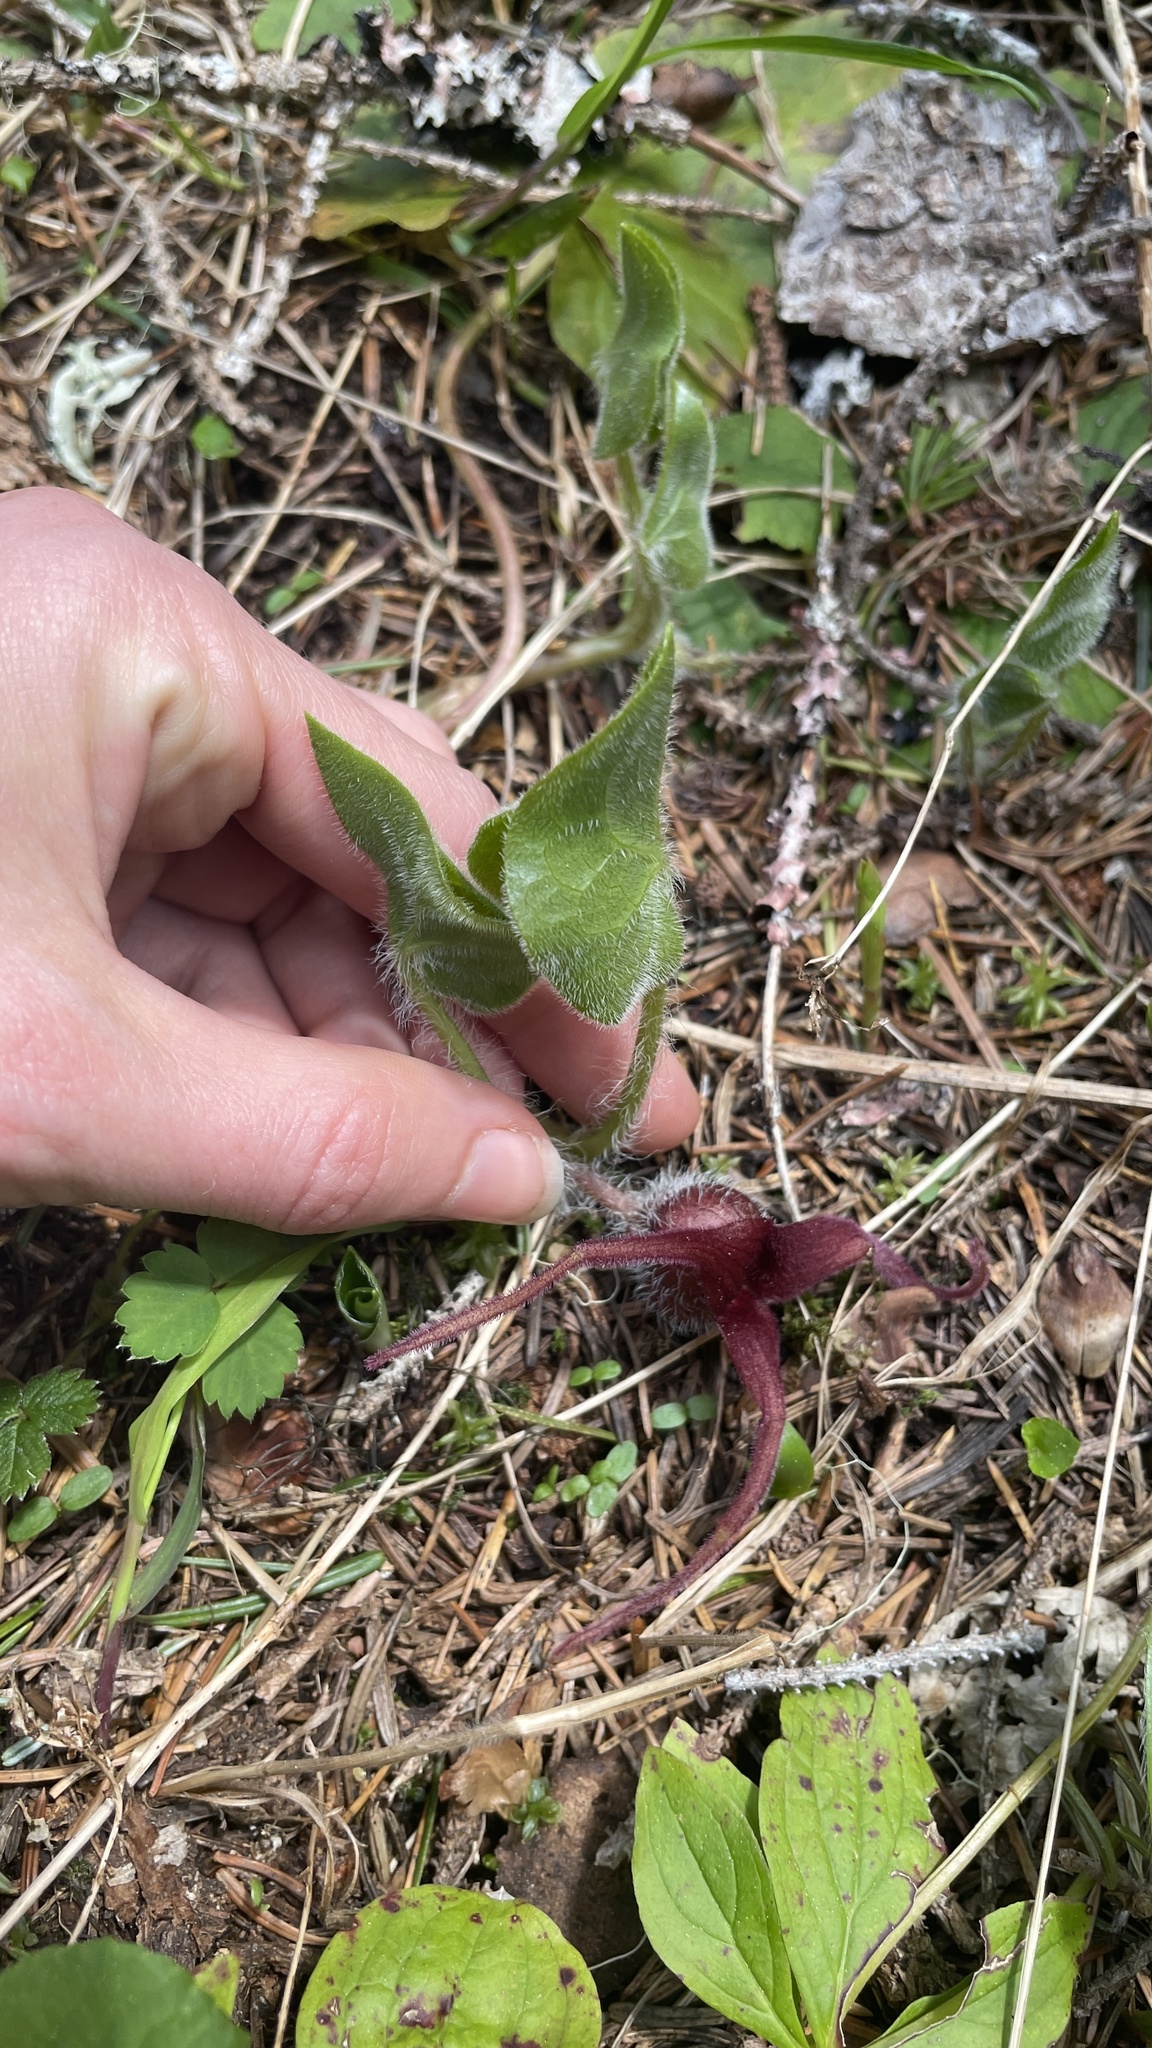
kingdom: Plantae
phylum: Tracheophyta
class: Magnoliopsida
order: Piperales
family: Aristolochiaceae
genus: Asarum
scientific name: Asarum caudatum
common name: Wild ginger
